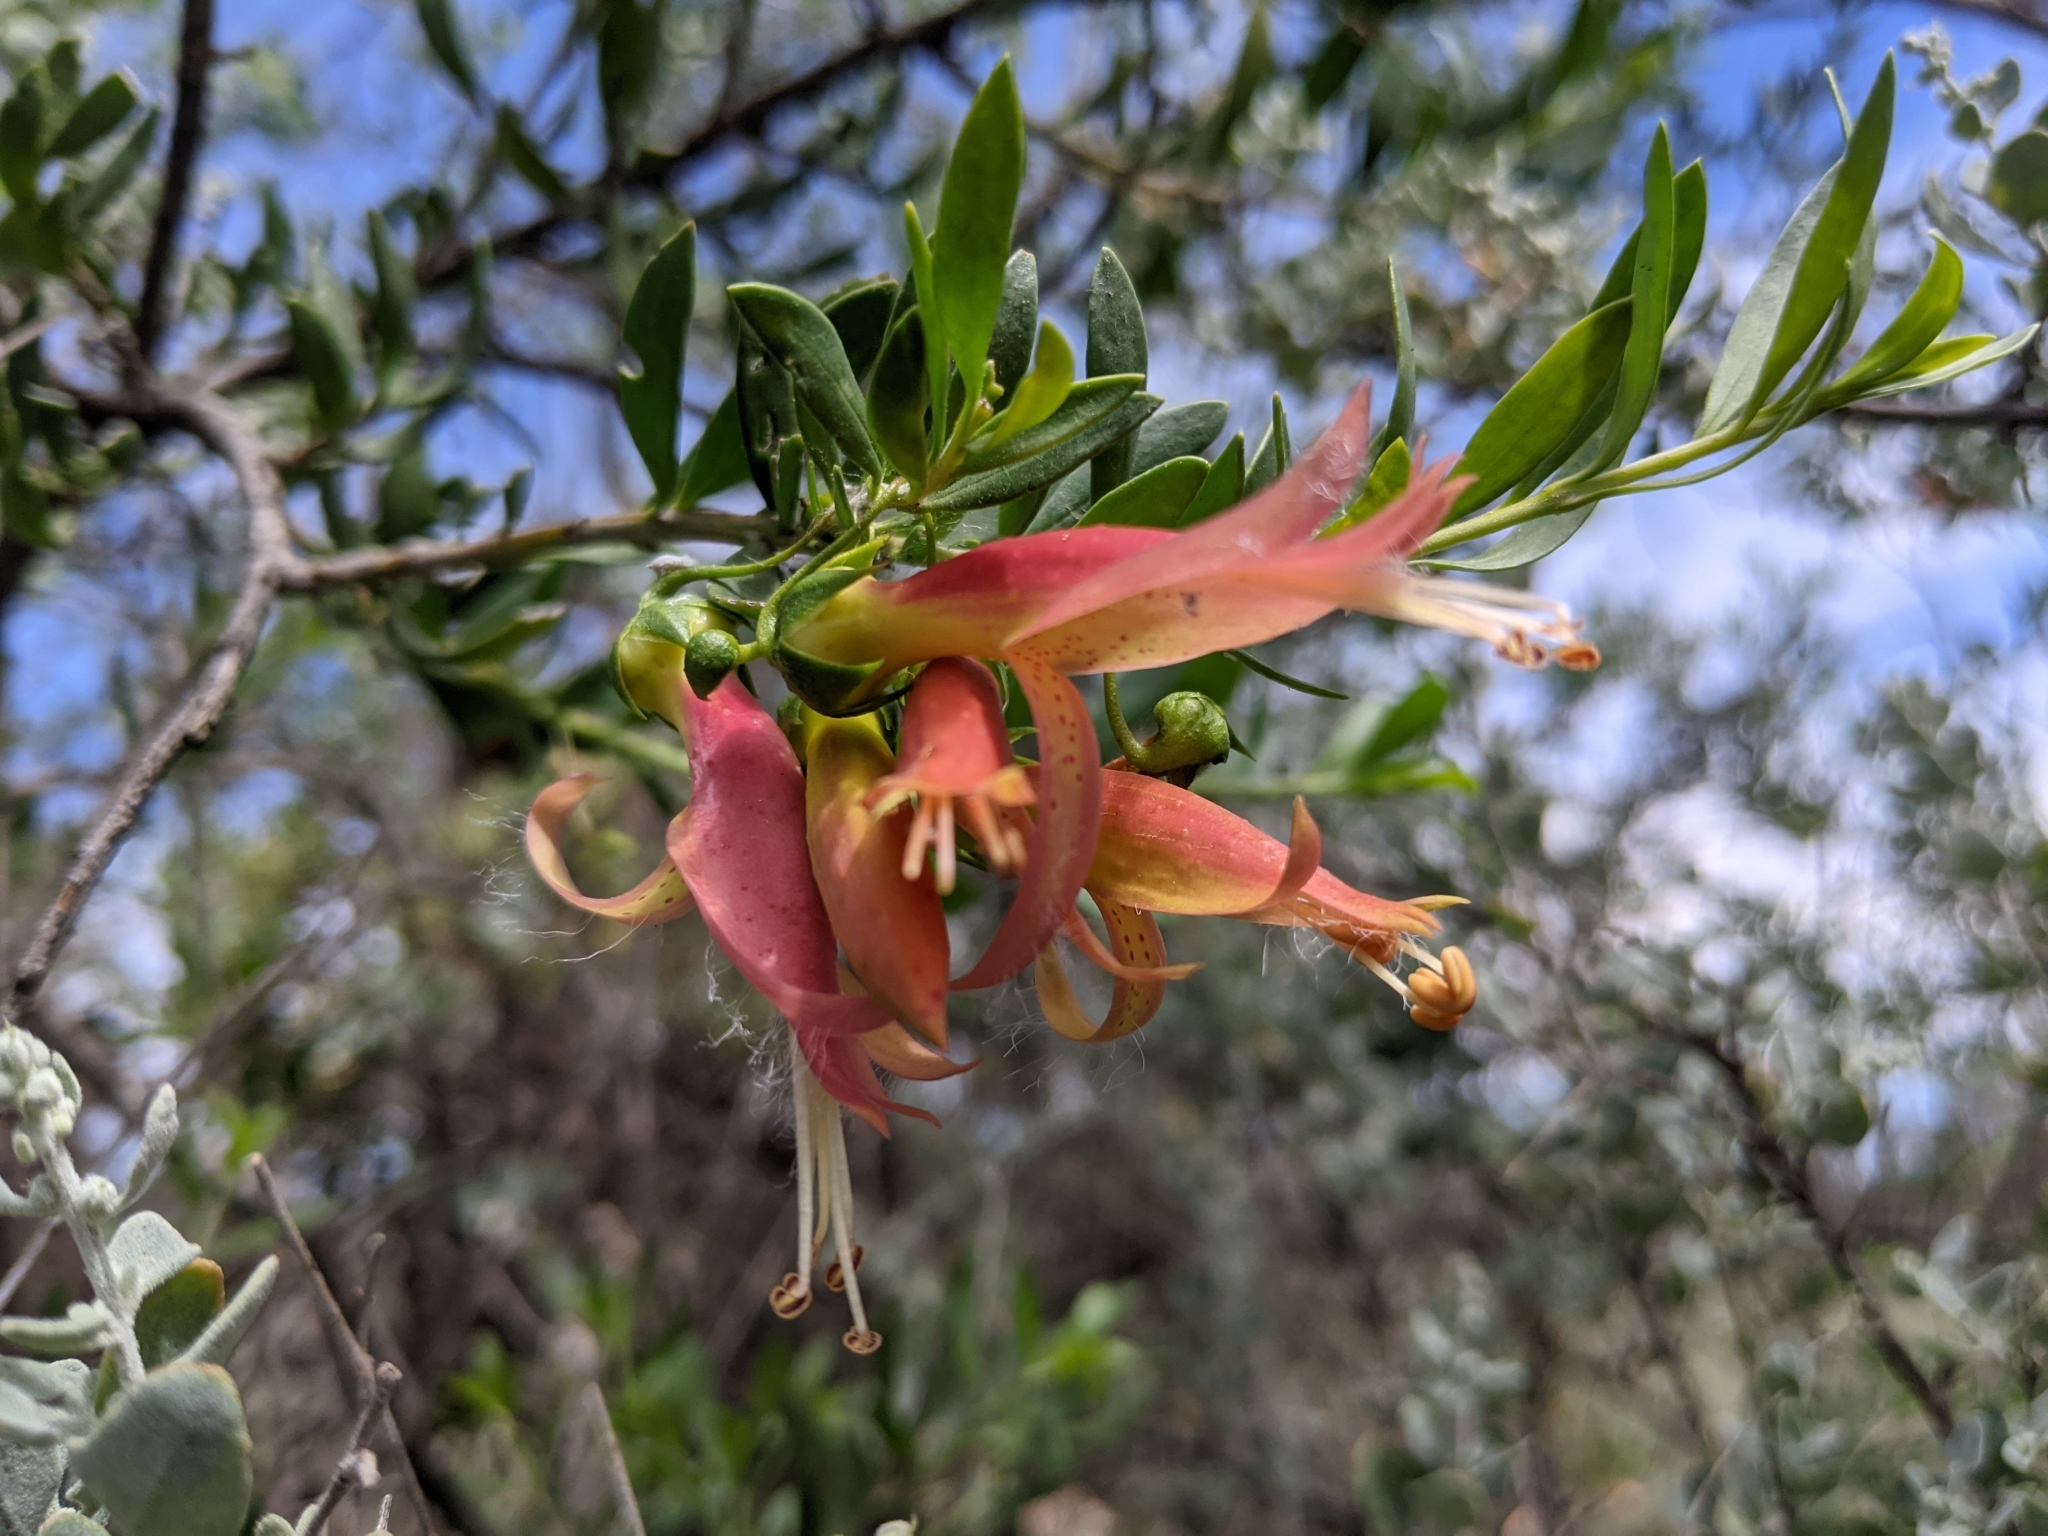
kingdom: Plantae
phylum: Tracheophyta
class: Magnoliopsida
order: Lamiales
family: Scrophulariaceae
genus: Eremophila
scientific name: Eremophila maculata
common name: Fuchsiabush
